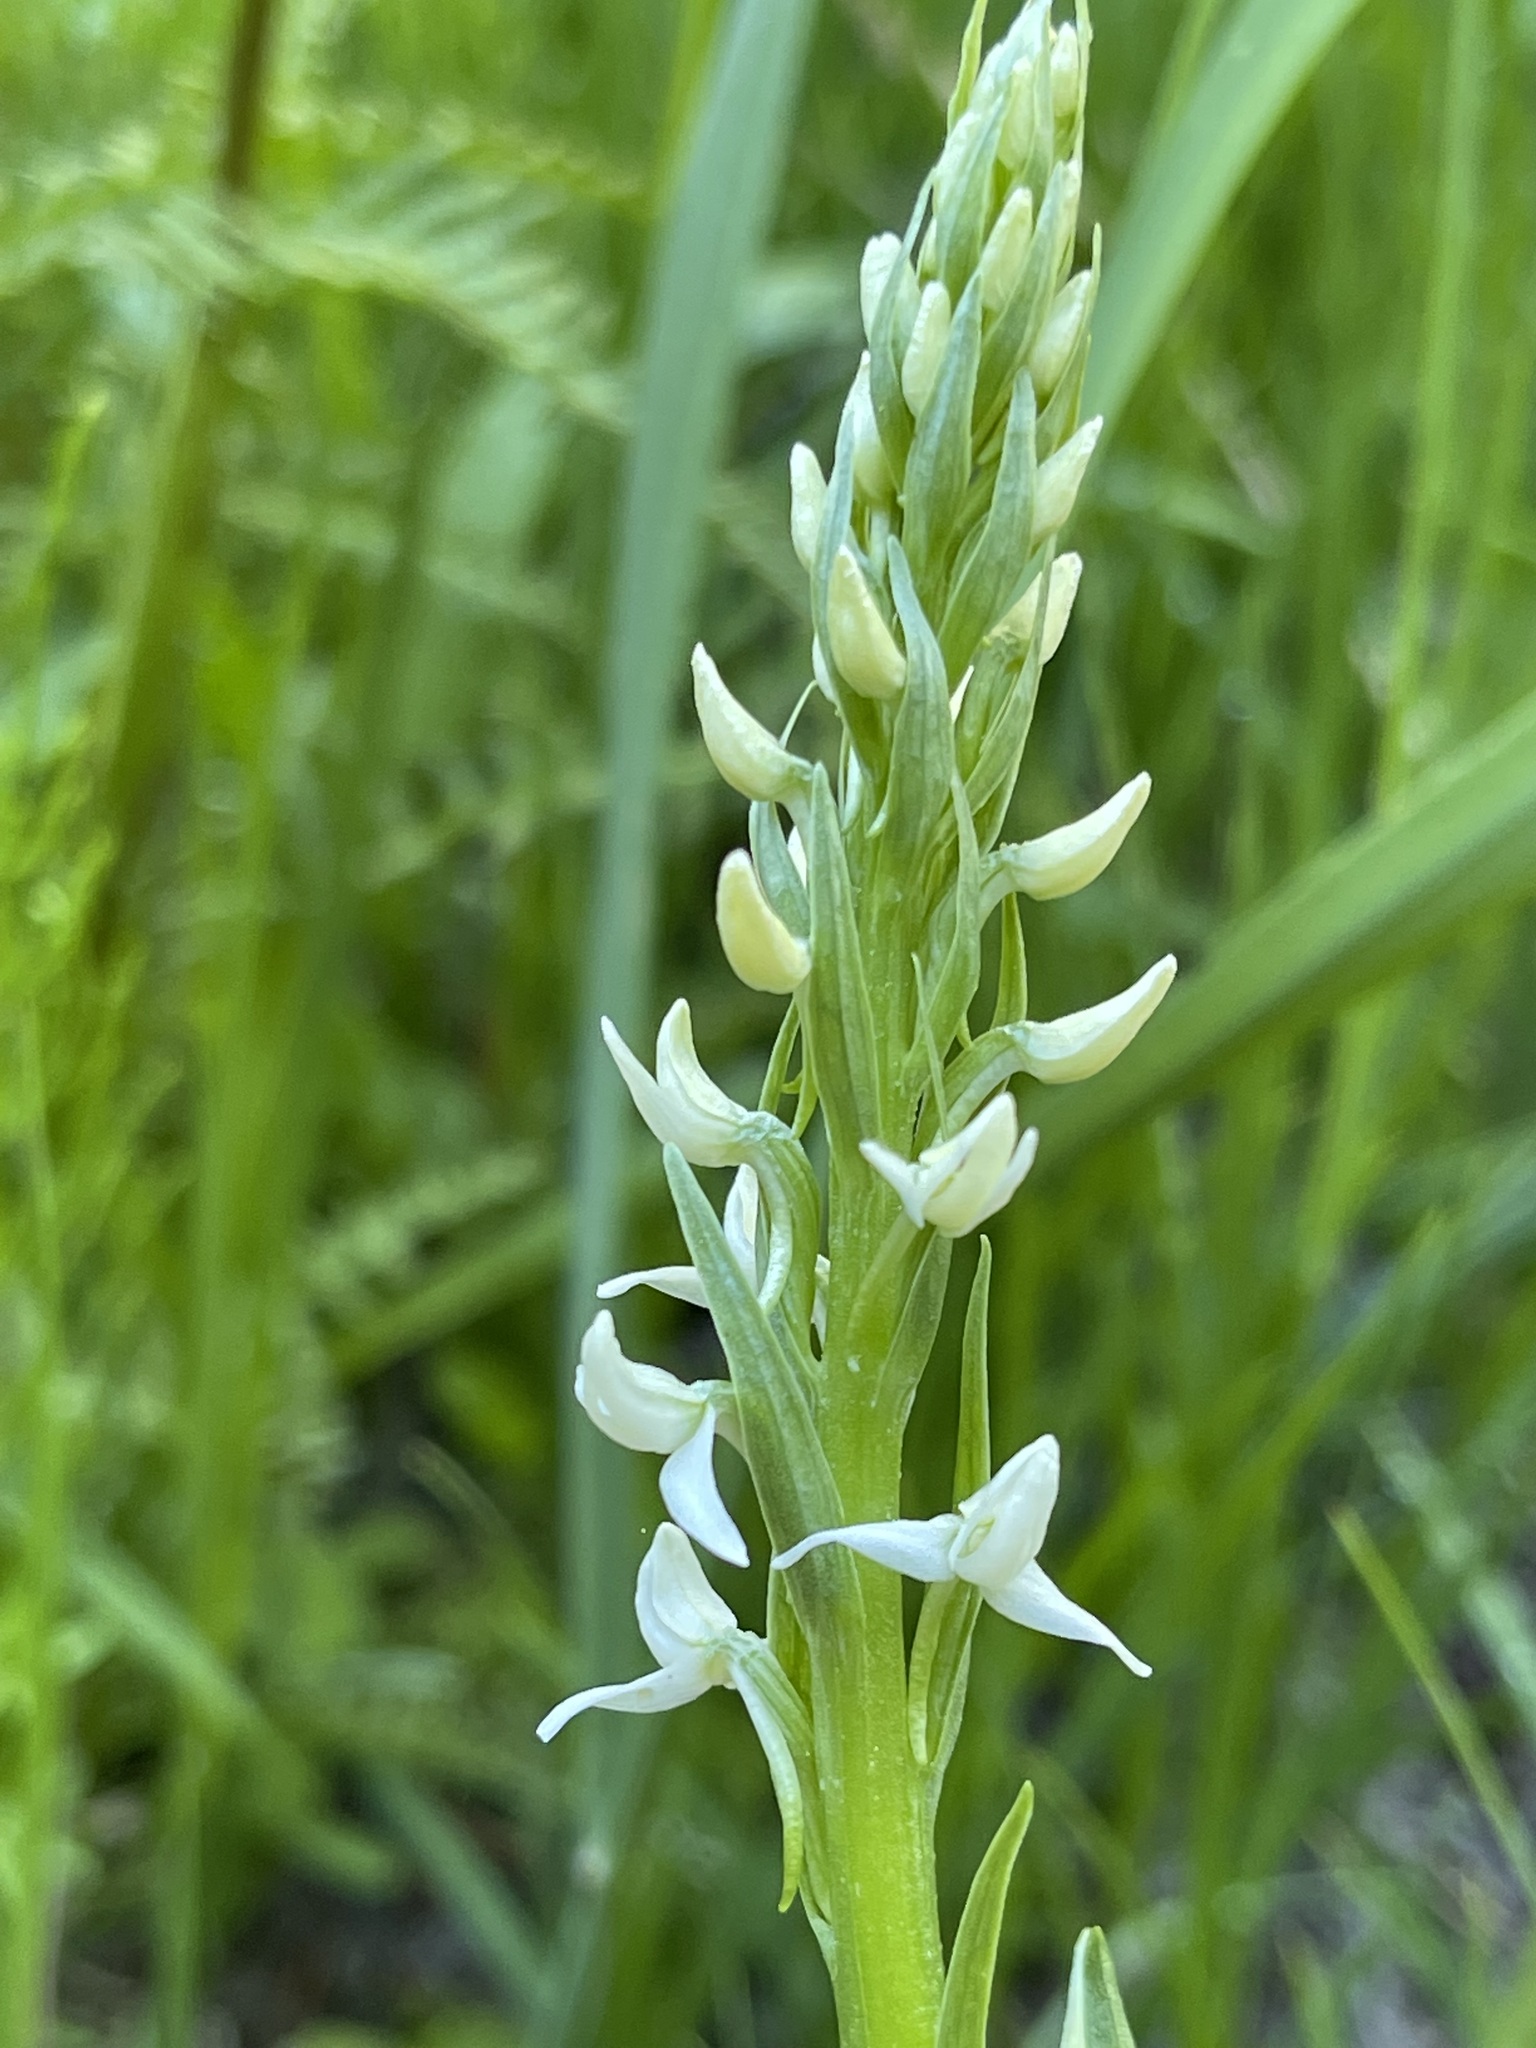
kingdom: Plantae
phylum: Tracheophyta
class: Liliopsida
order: Asparagales
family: Orchidaceae
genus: Platanthera
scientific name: Platanthera dilatata
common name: Bog candles
